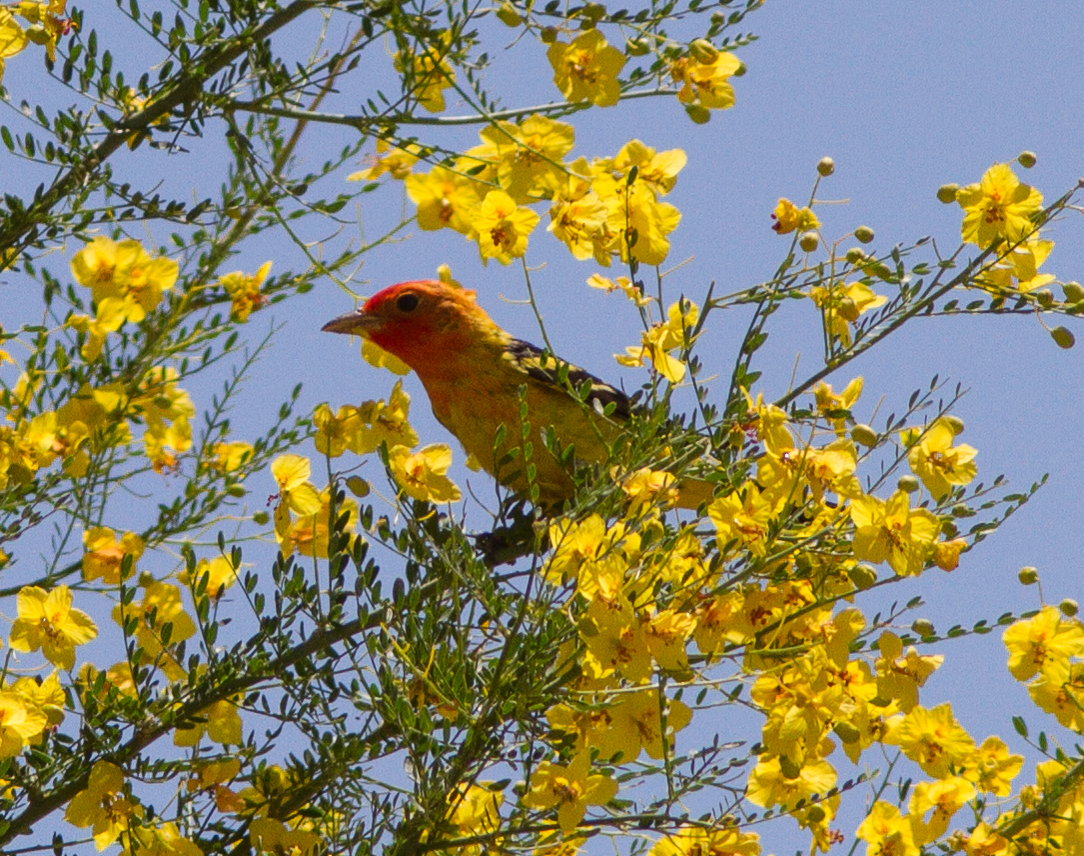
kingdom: Animalia
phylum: Chordata
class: Aves
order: Passeriformes
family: Cardinalidae
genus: Piranga
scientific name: Piranga ludoviciana
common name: Western tanager
